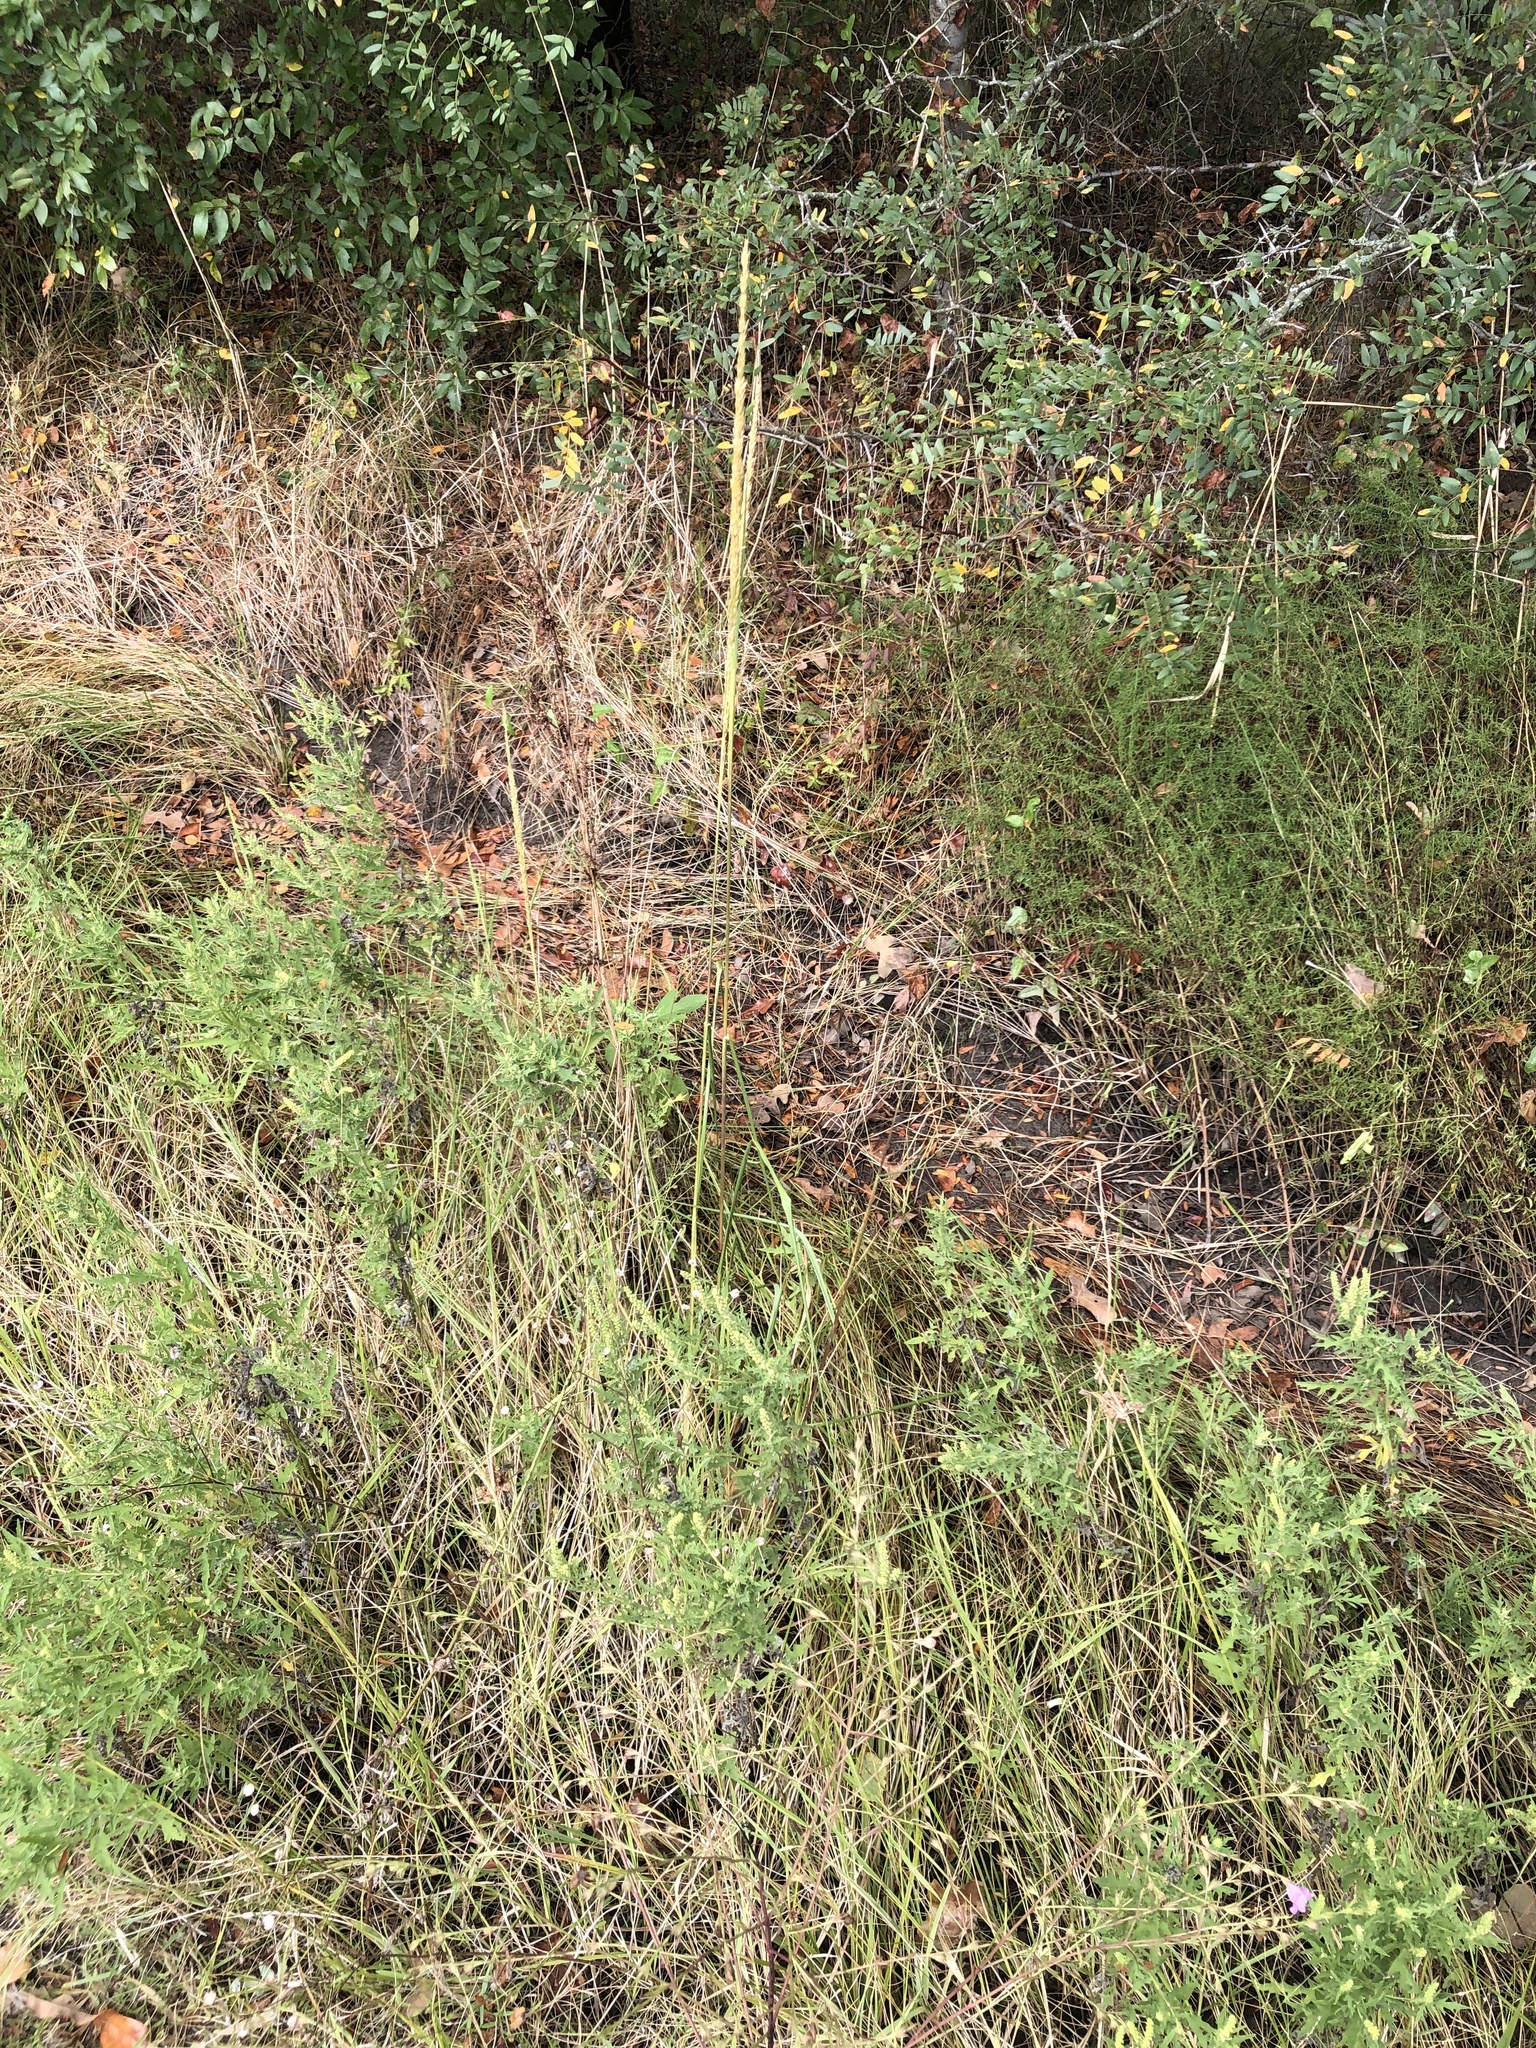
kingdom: Plantae
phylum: Tracheophyta
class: Liliopsida
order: Poales
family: Poaceae
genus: Tridens
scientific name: Tridens strictus
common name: Long-spike tridens
